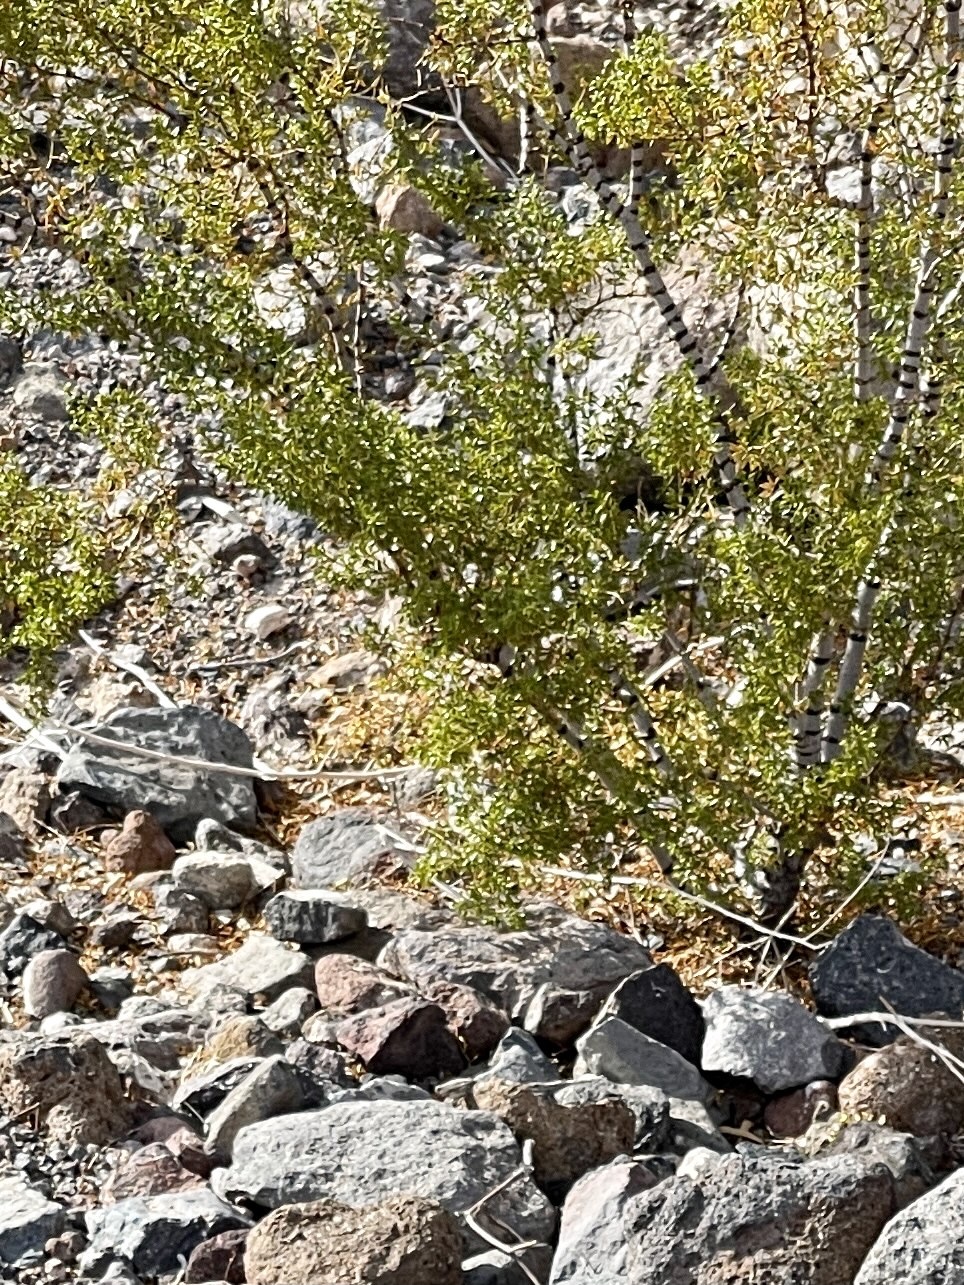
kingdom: Plantae
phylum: Tracheophyta
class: Magnoliopsida
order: Zygophyllales
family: Zygophyllaceae
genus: Larrea
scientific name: Larrea tridentata
